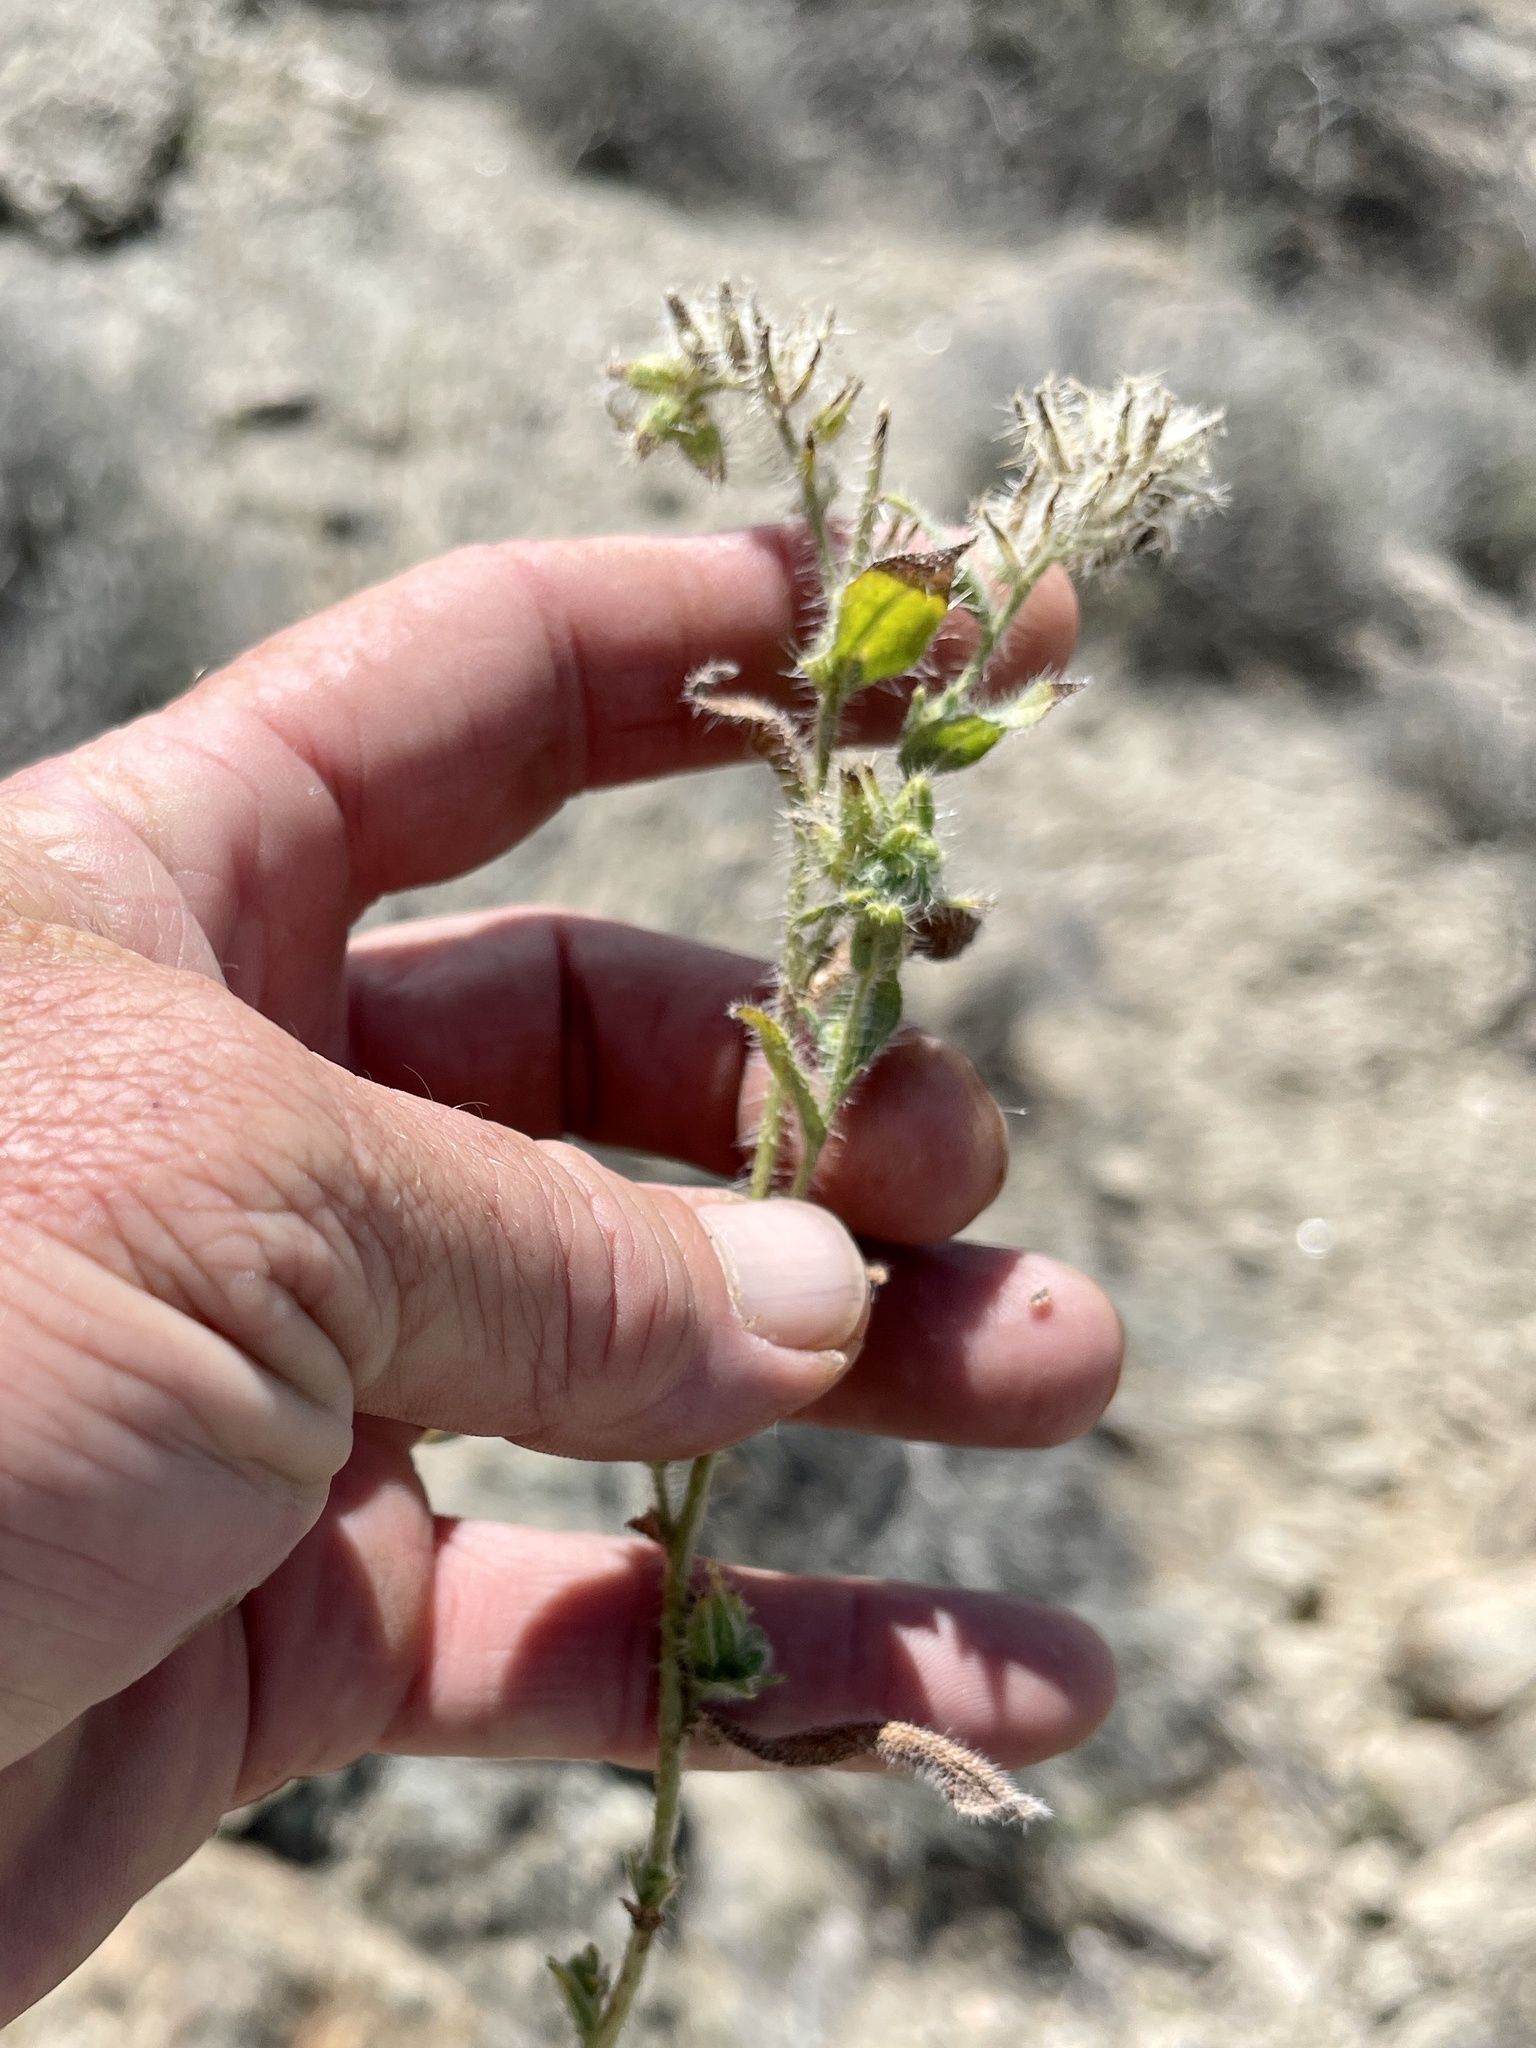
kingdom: Plantae
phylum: Tracheophyta
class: Magnoliopsida
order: Boraginales
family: Boraginaceae
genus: Amsinckia
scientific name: Amsinckia tessellata
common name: Tessellate fiddleneck
